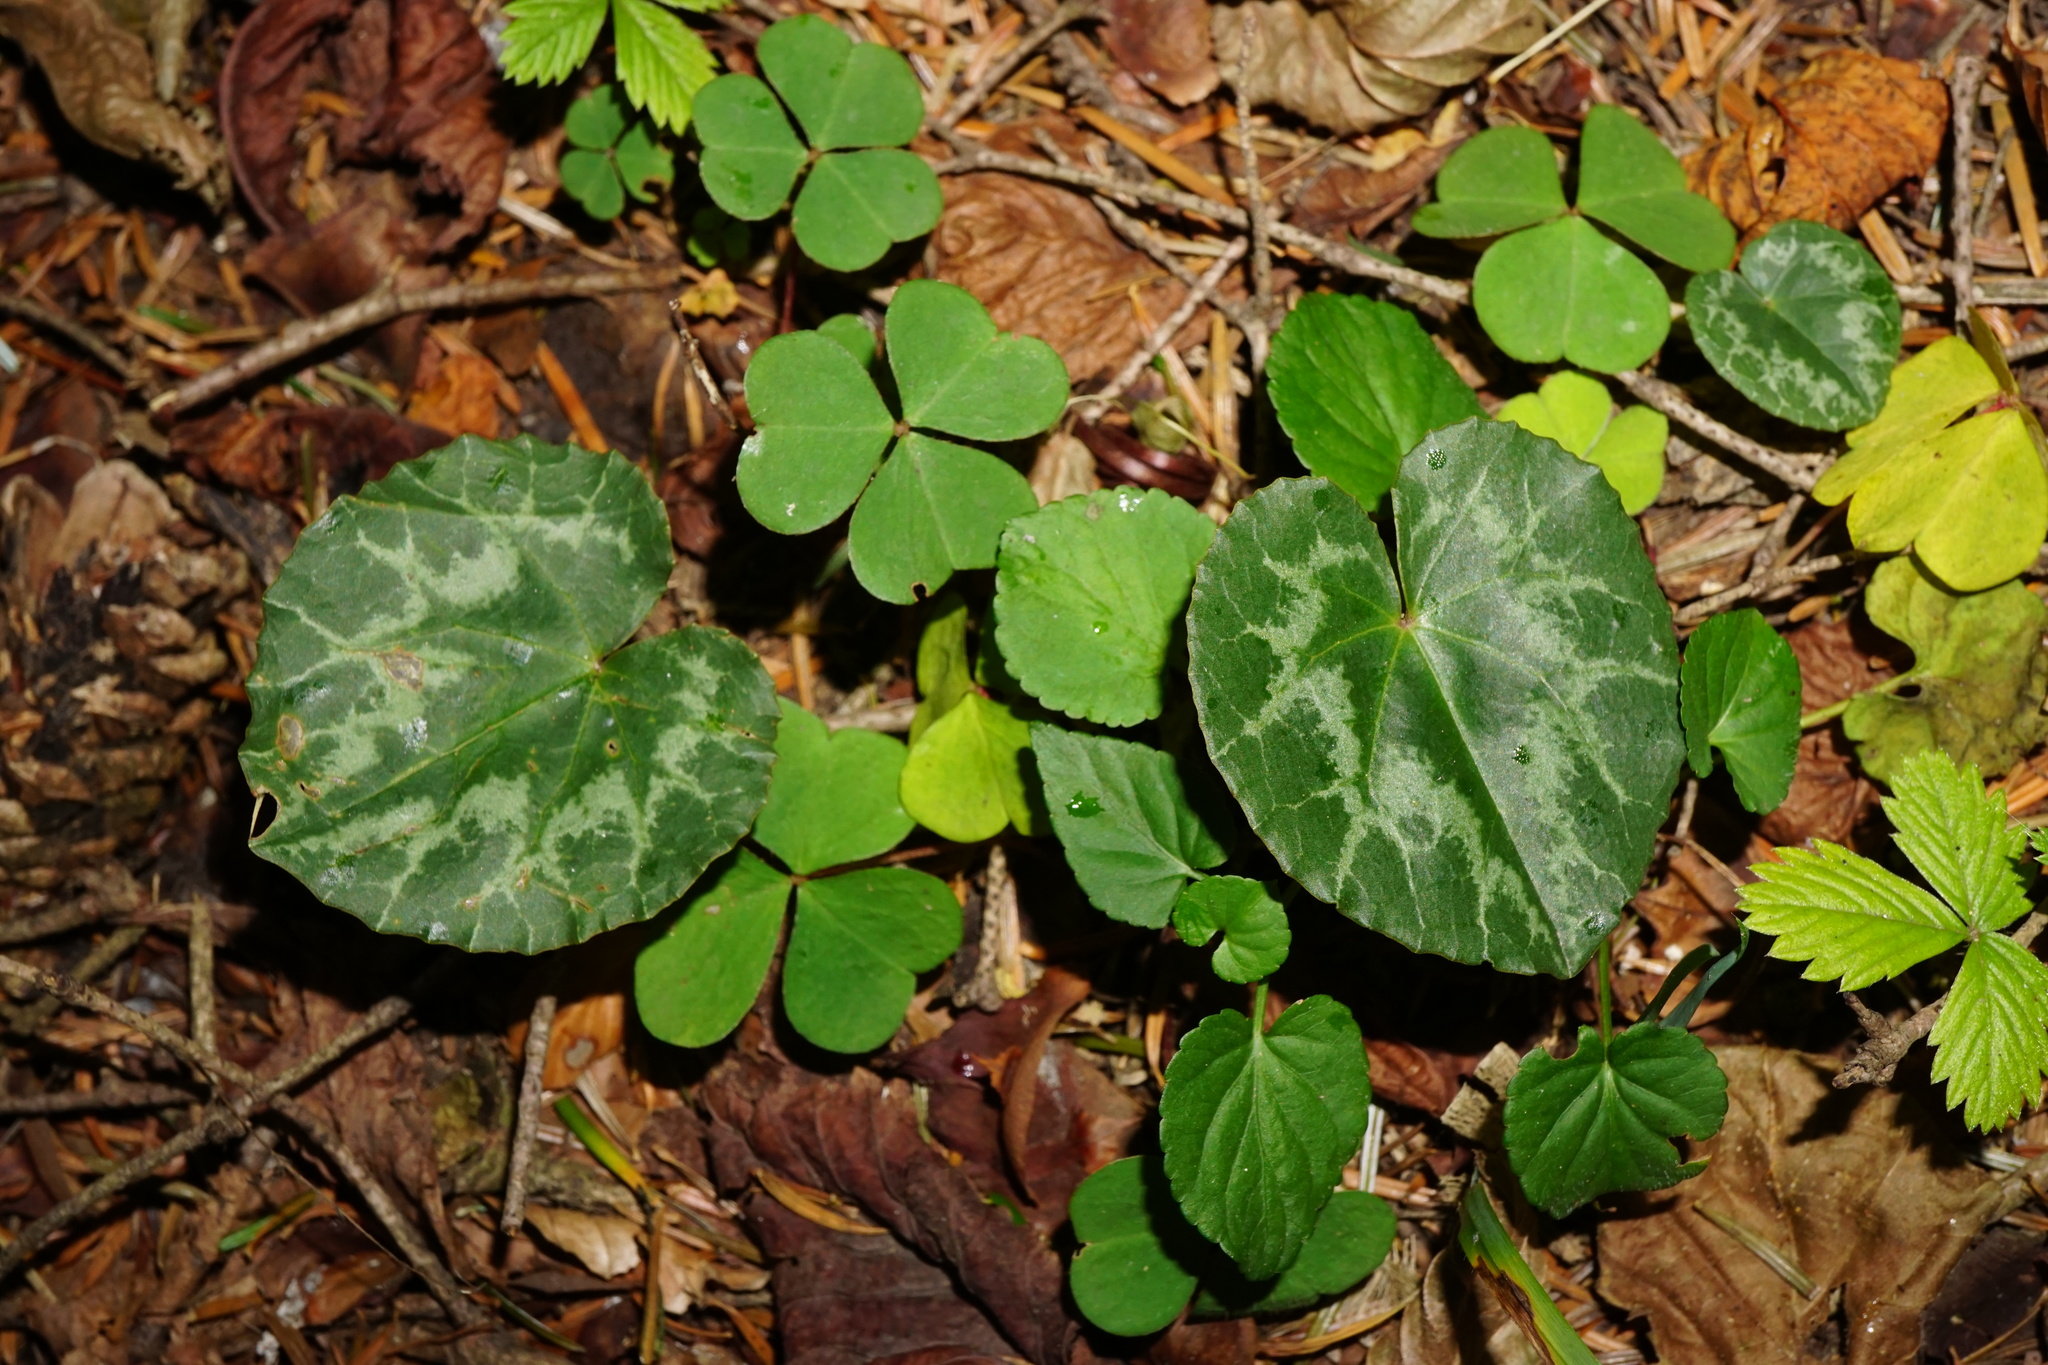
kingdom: Plantae
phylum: Tracheophyta
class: Magnoliopsida
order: Ericales
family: Primulaceae
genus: Cyclamen
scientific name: Cyclamen purpurascens
